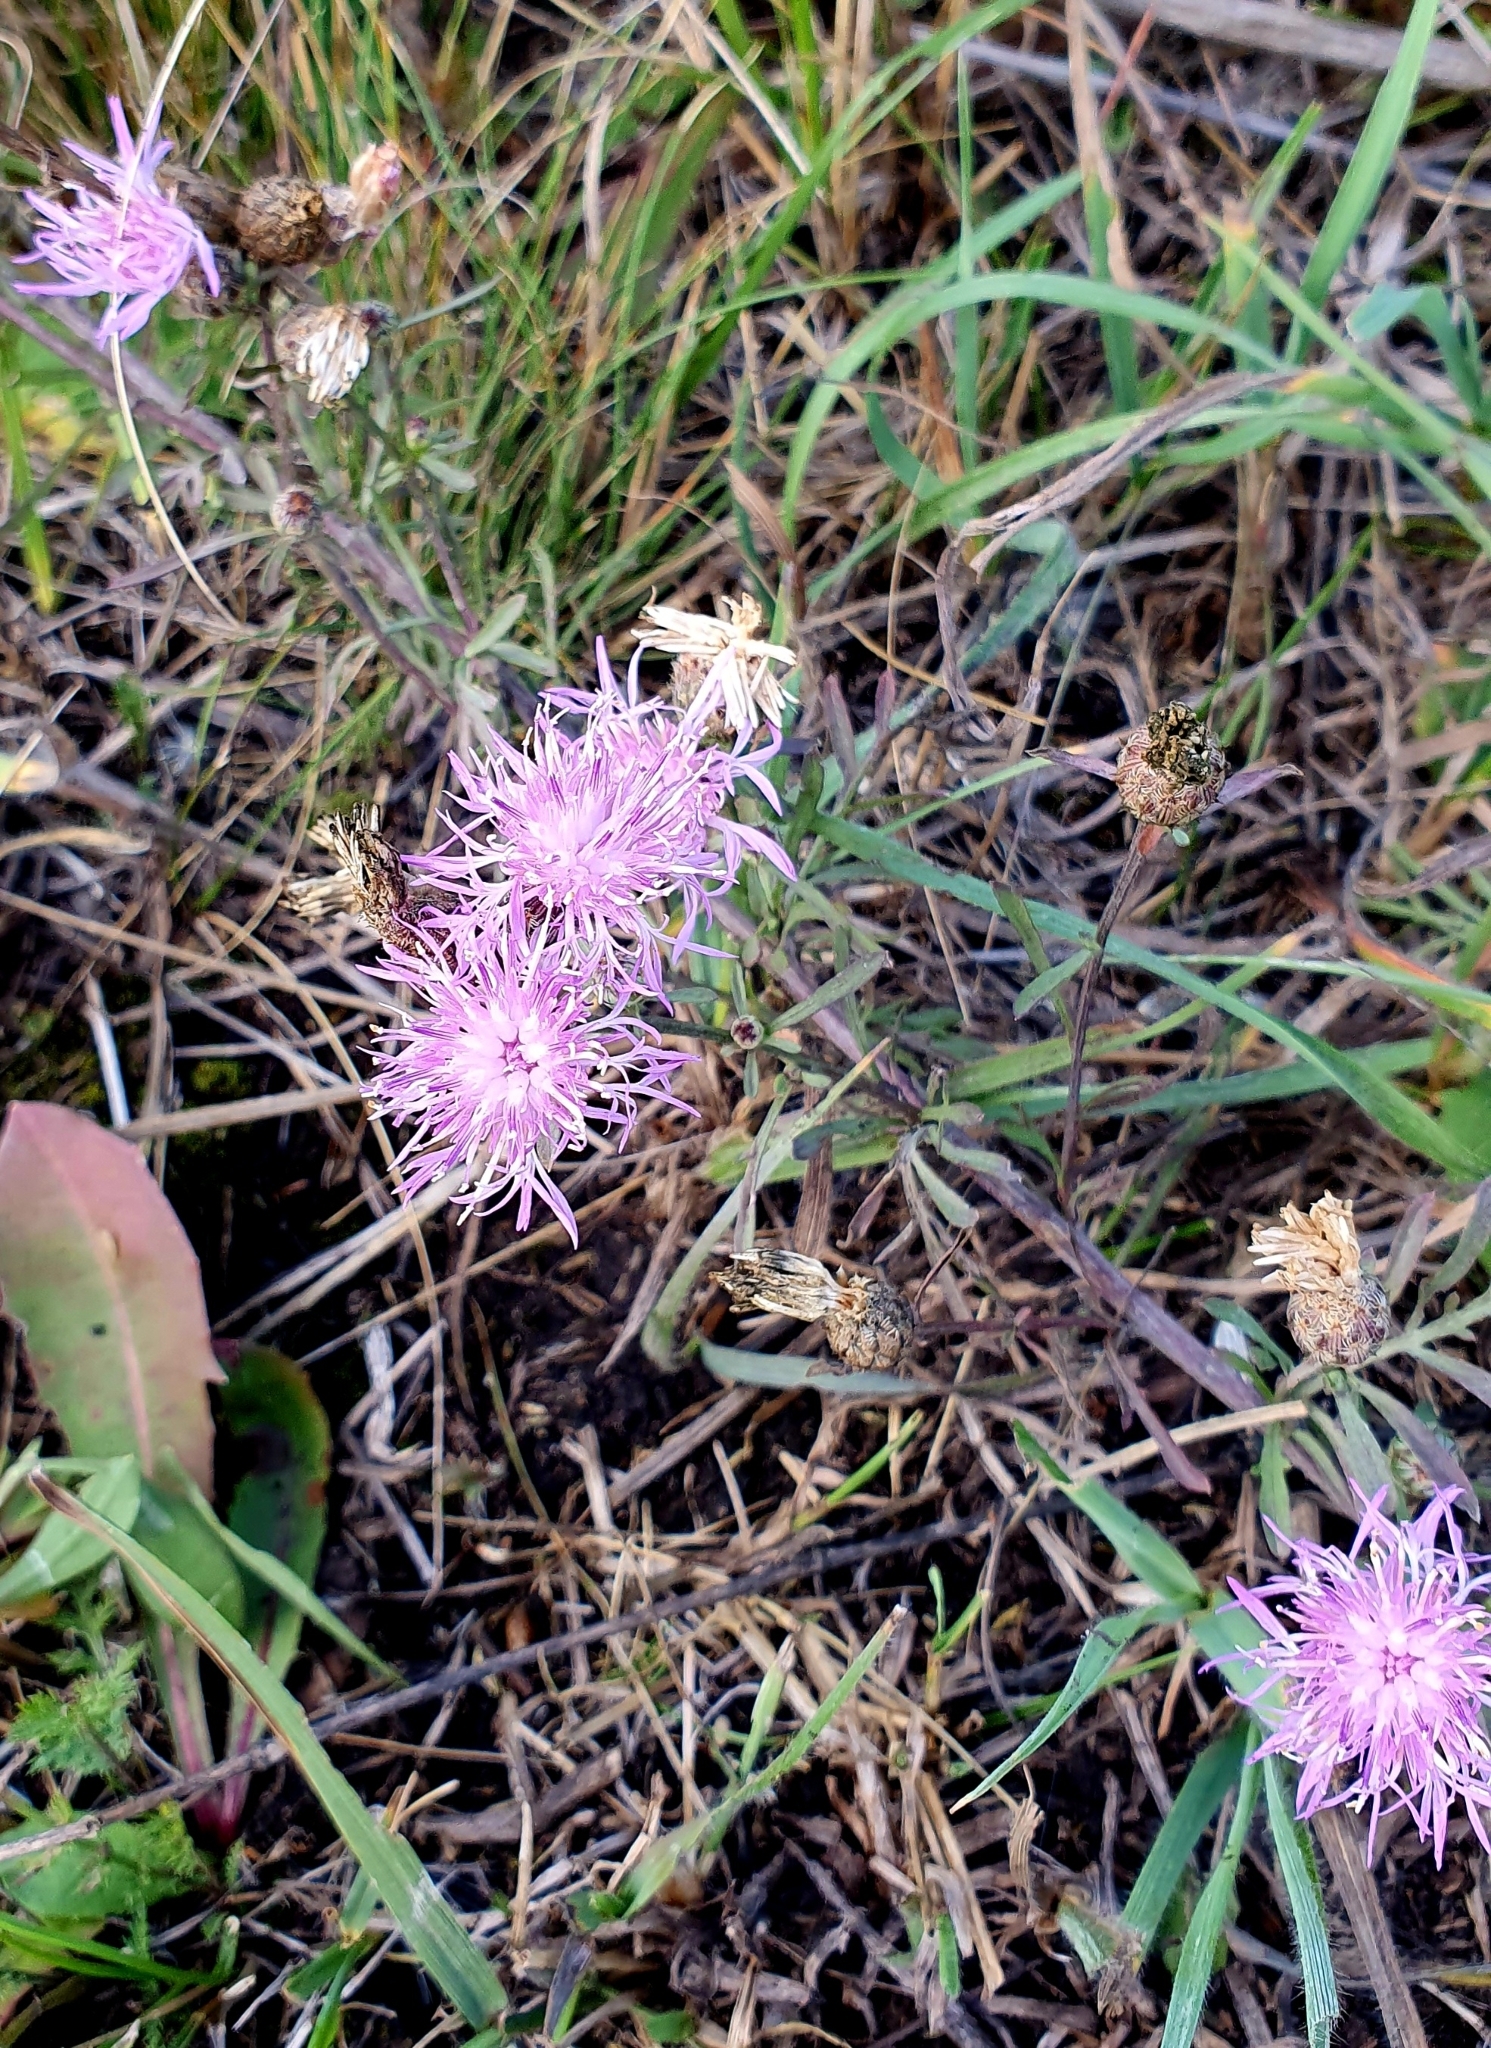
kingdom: Plantae
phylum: Tracheophyta
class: Magnoliopsida
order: Asterales
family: Asteraceae
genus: Centaurea
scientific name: Centaurea stoebe
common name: Spotted knapweed
